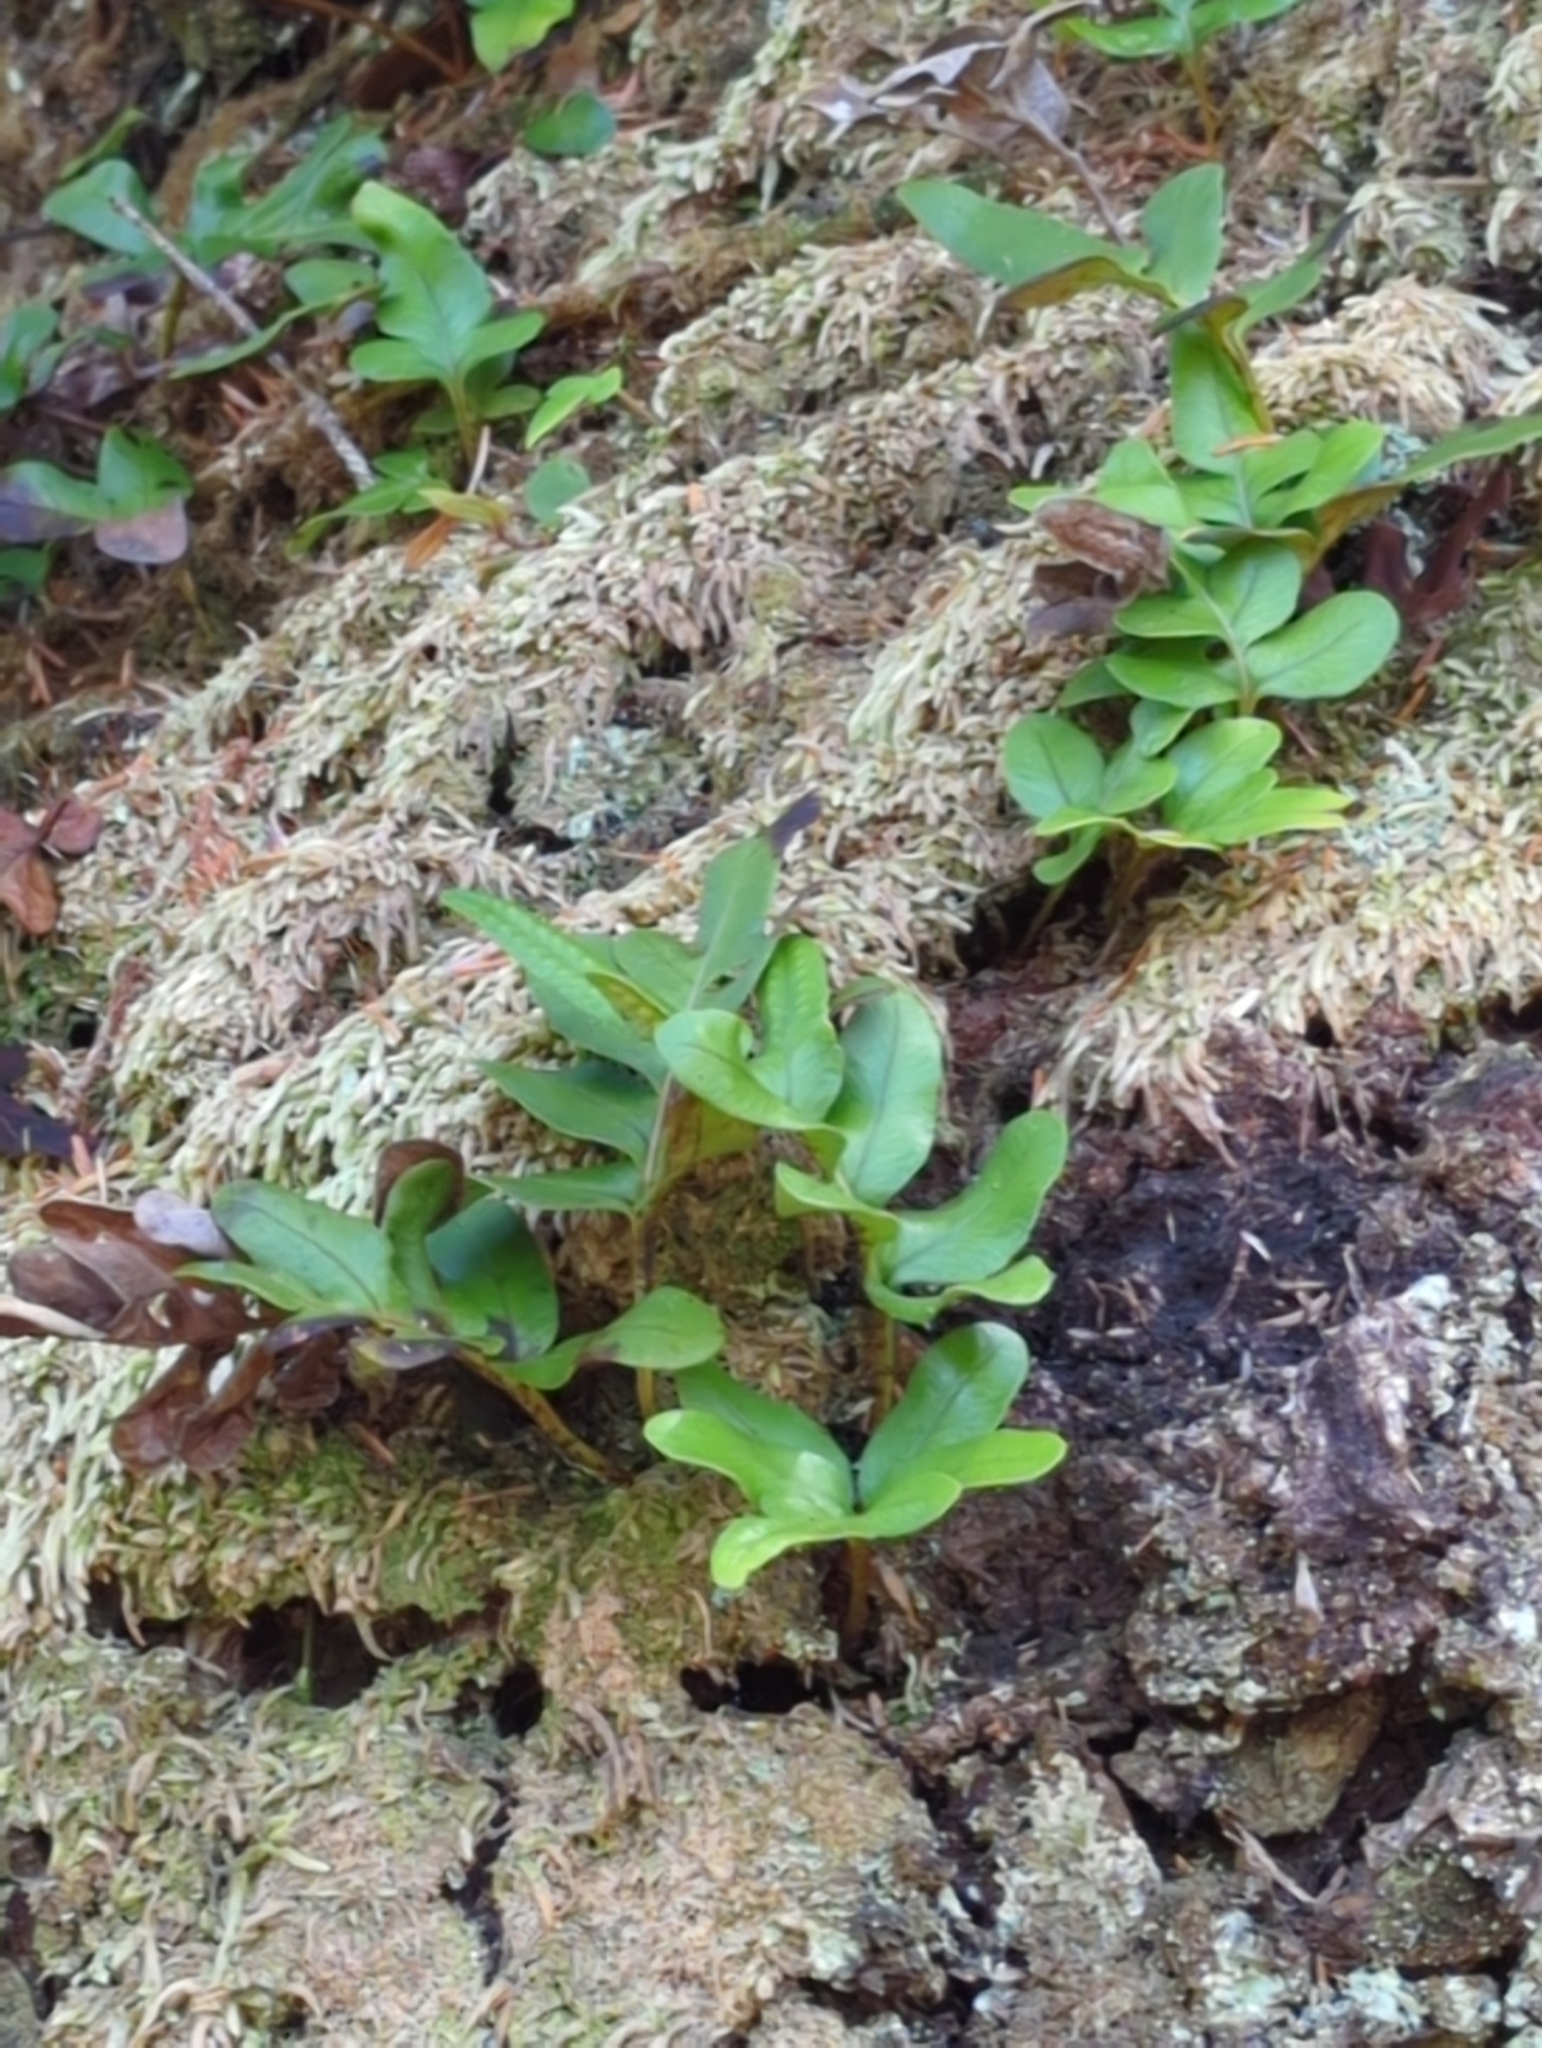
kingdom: Plantae
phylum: Tracheophyta
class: Polypodiopsida
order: Polypodiales
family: Polypodiaceae
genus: Polypodium
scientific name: Polypodium scouleri
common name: Scouler's polypody
